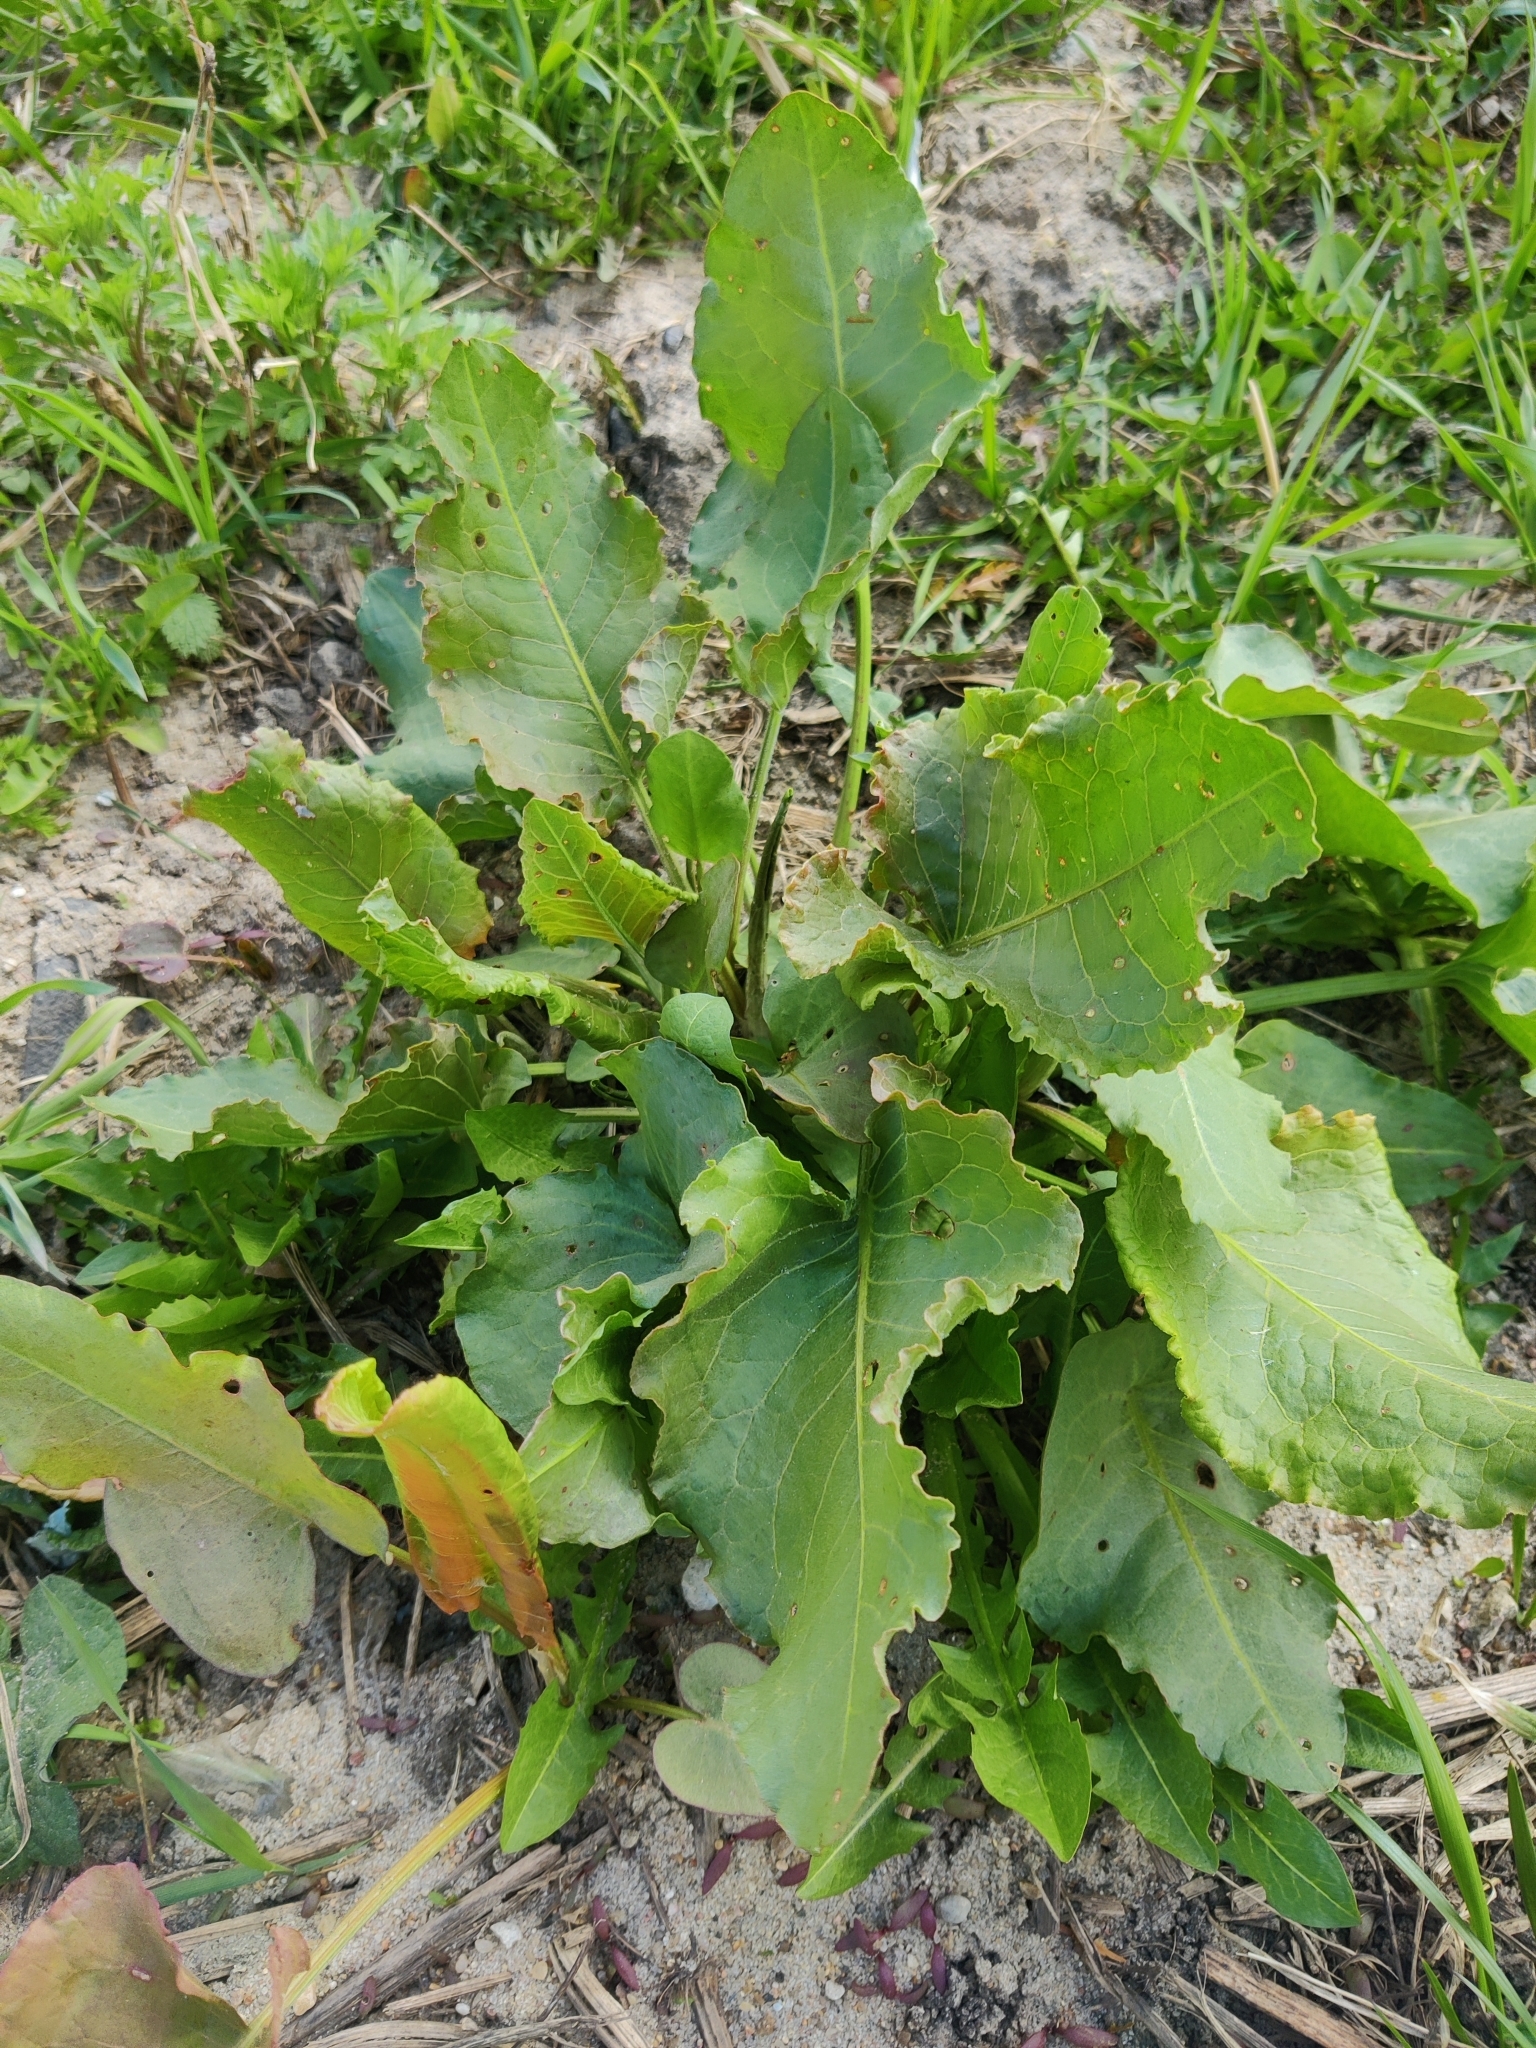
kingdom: Plantae
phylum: Tracheophyta
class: Magnoliopsida
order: Caryophyllales
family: Polygonaceae
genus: Rumex
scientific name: Rumex confertus
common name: Russian dock
